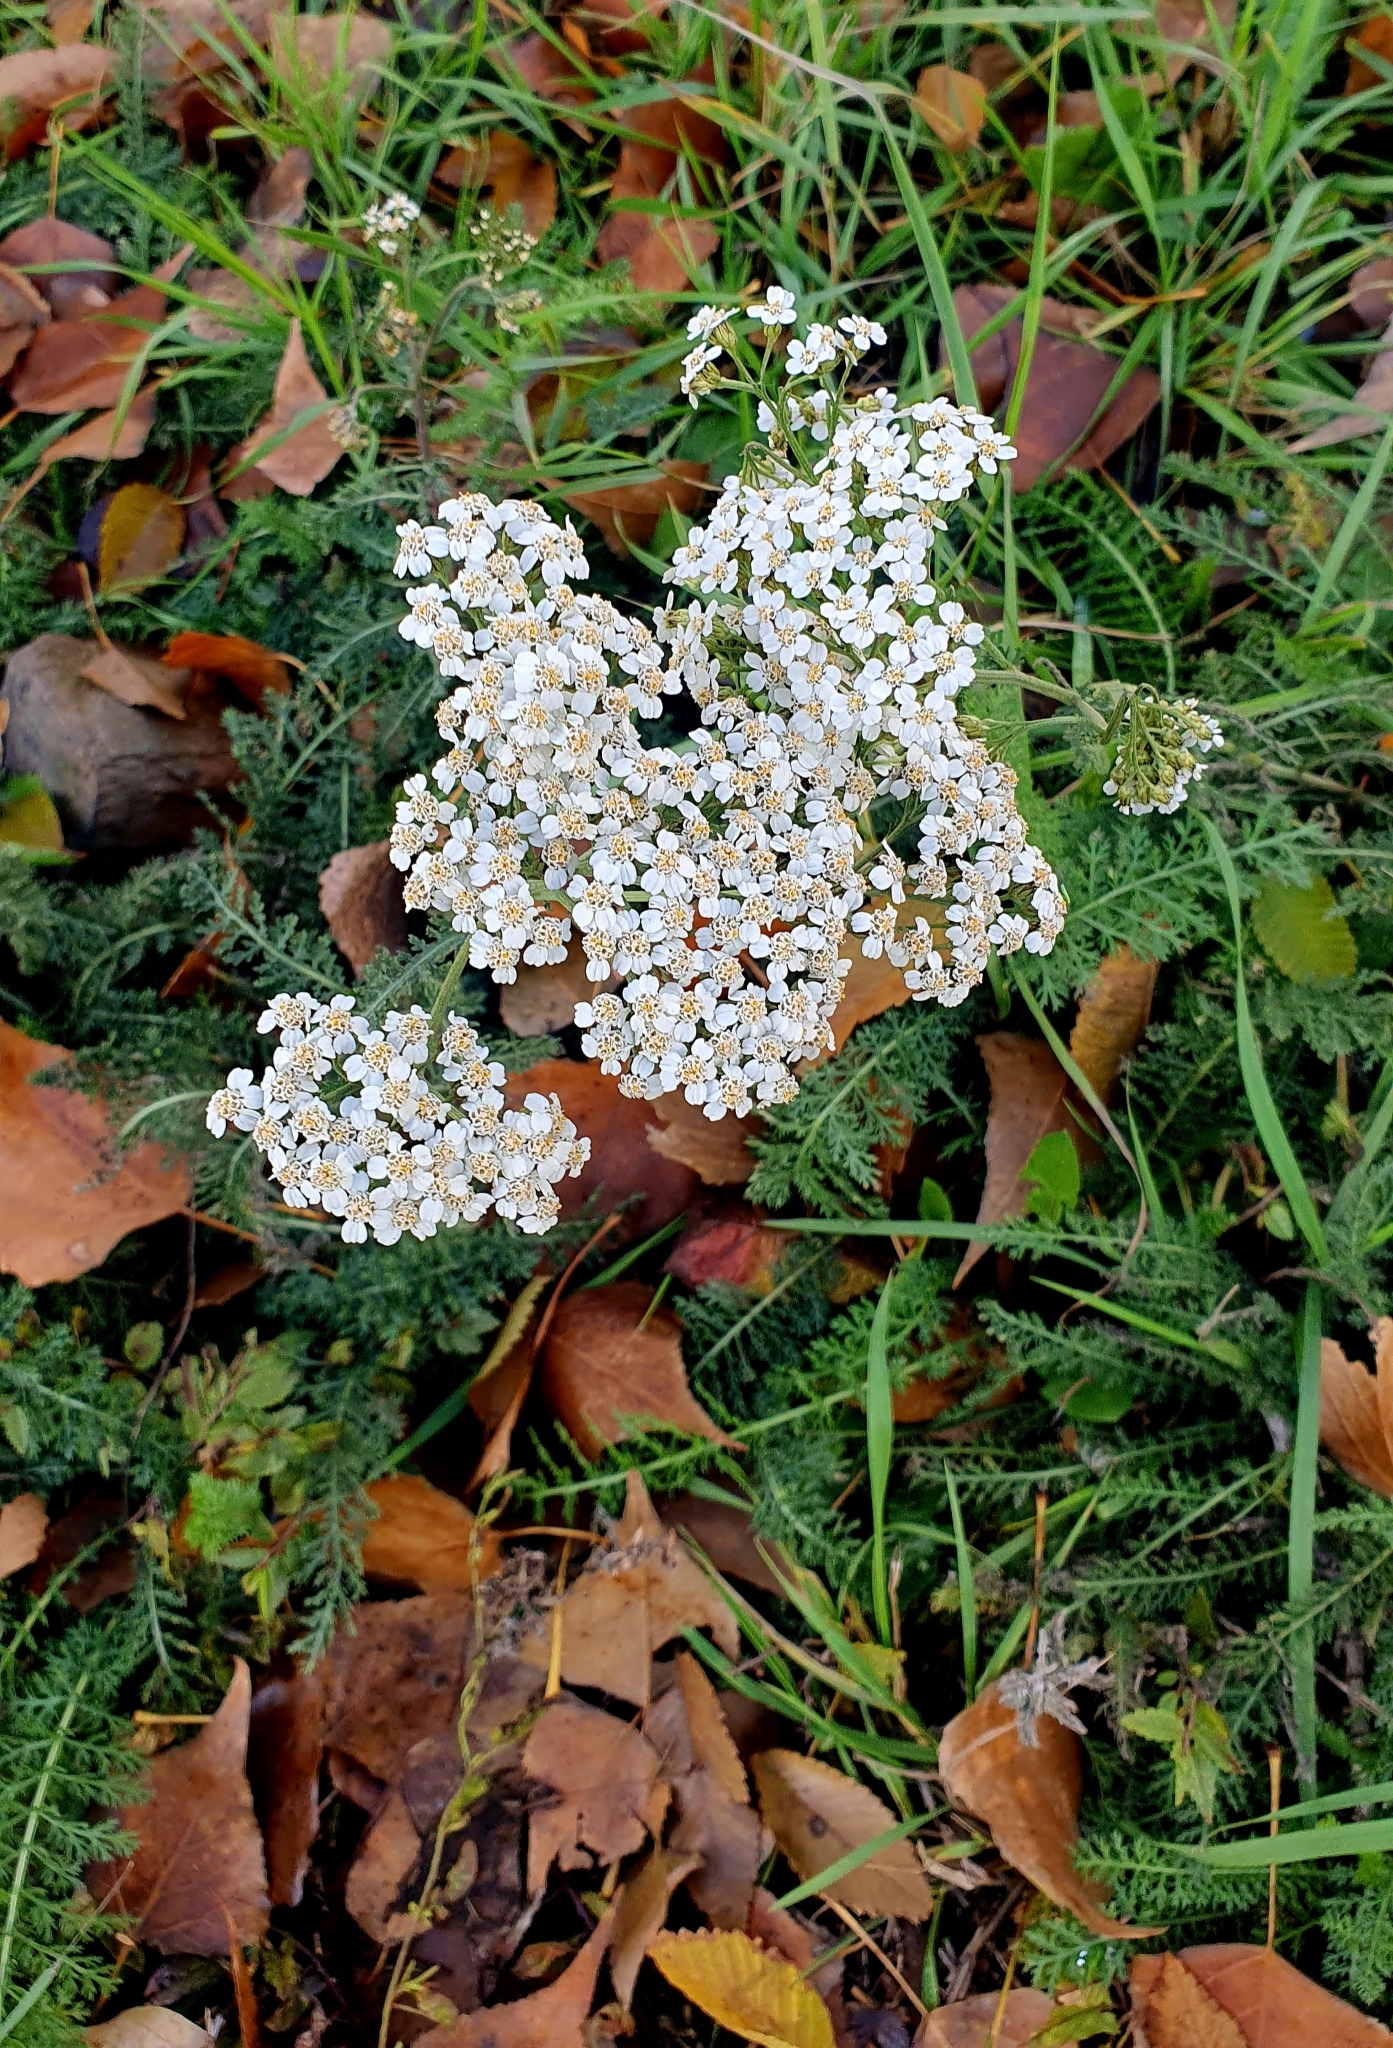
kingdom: Plantae
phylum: Tracheophyta
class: Magnoliopsida
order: Asterales
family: Asteraceae
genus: Achillea
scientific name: Achillea millefolium
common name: Yarrow
